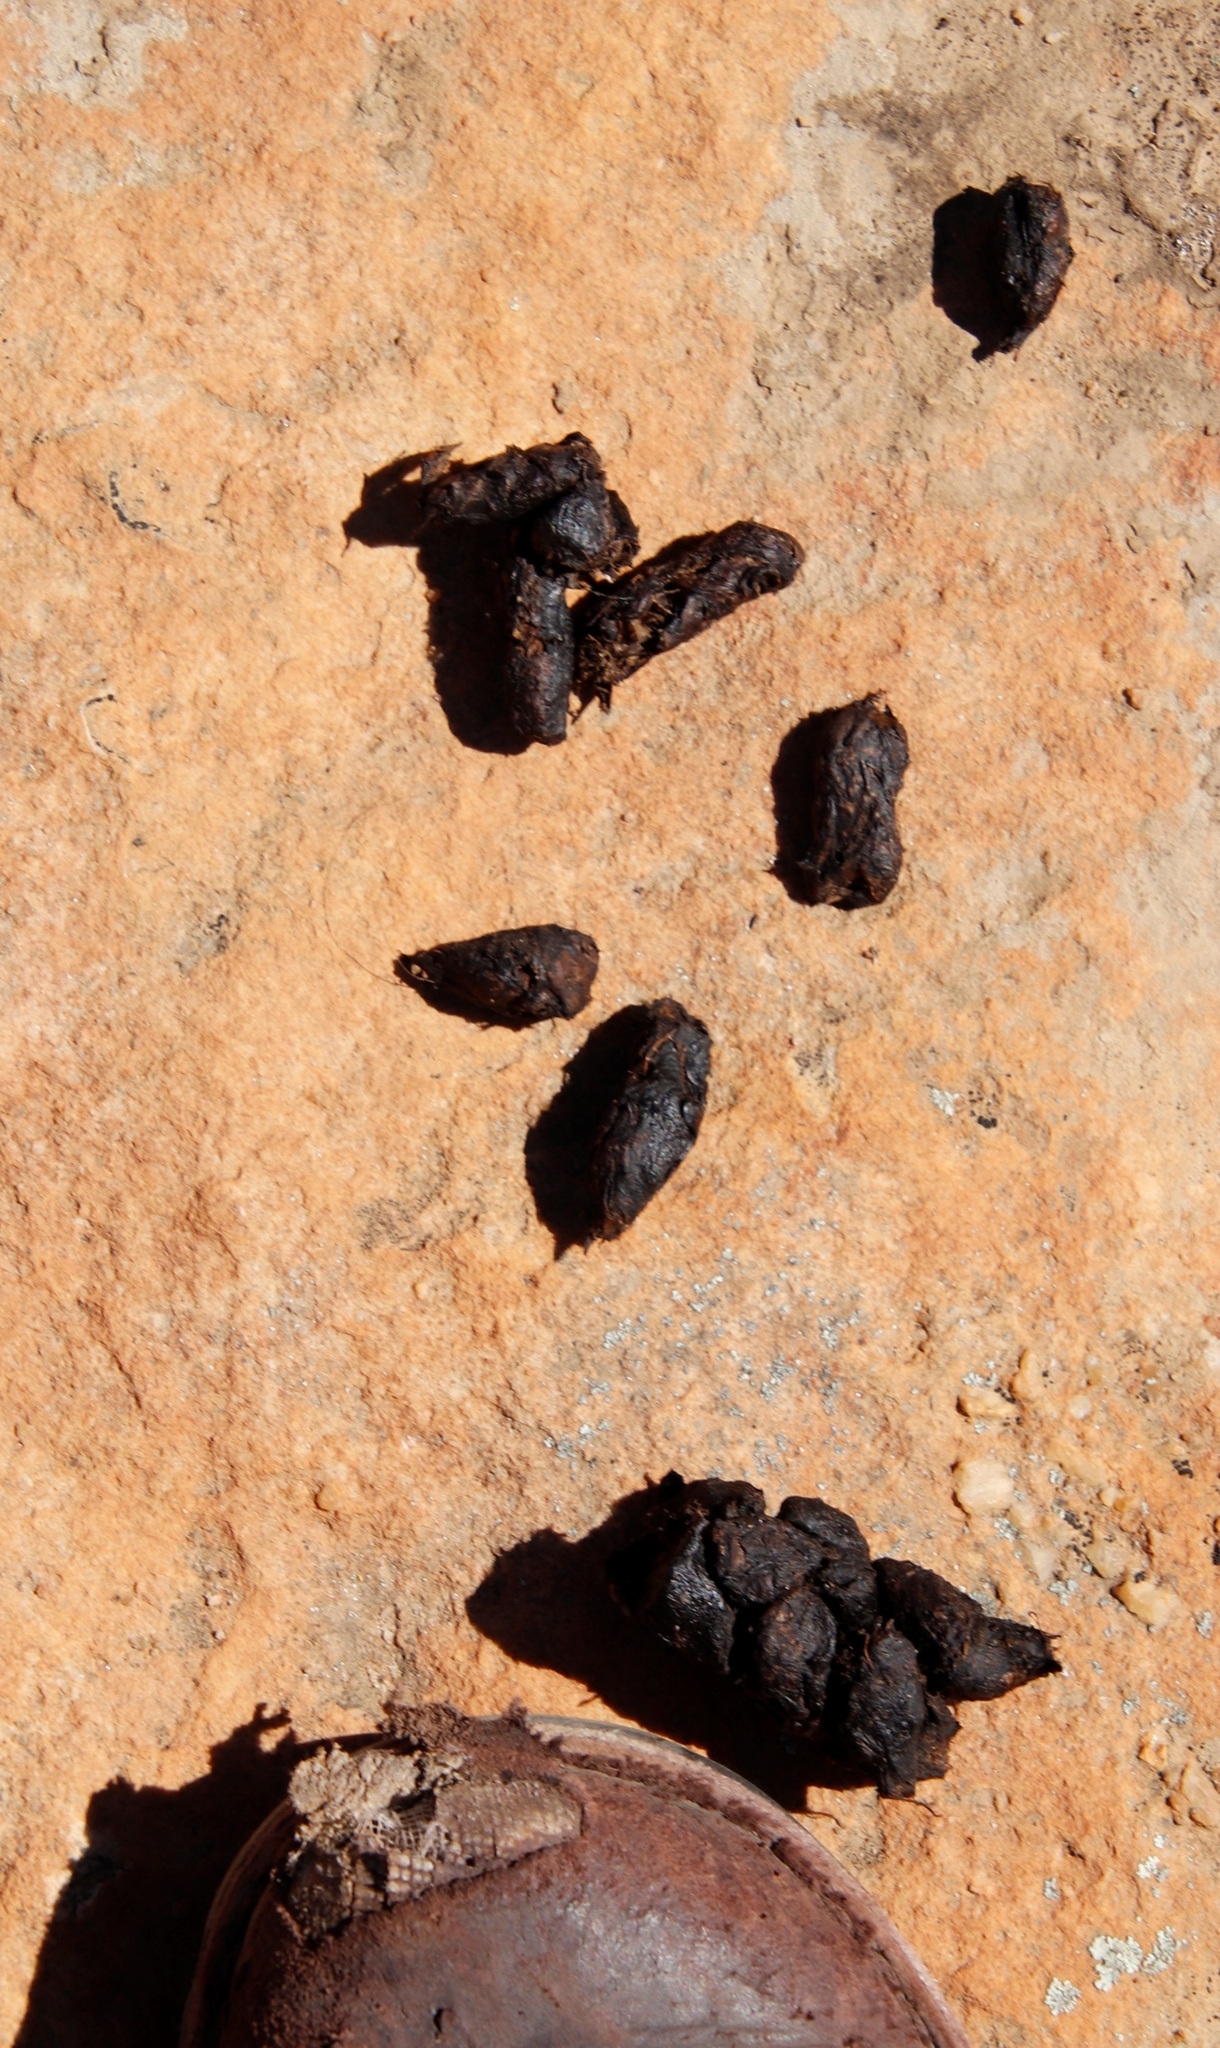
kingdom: Animalia
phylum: Chordata
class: Mammalia
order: Rodentia
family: Hystricidae
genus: Hystrix
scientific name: Hystrix africaeaustralis
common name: Cape porcupine
